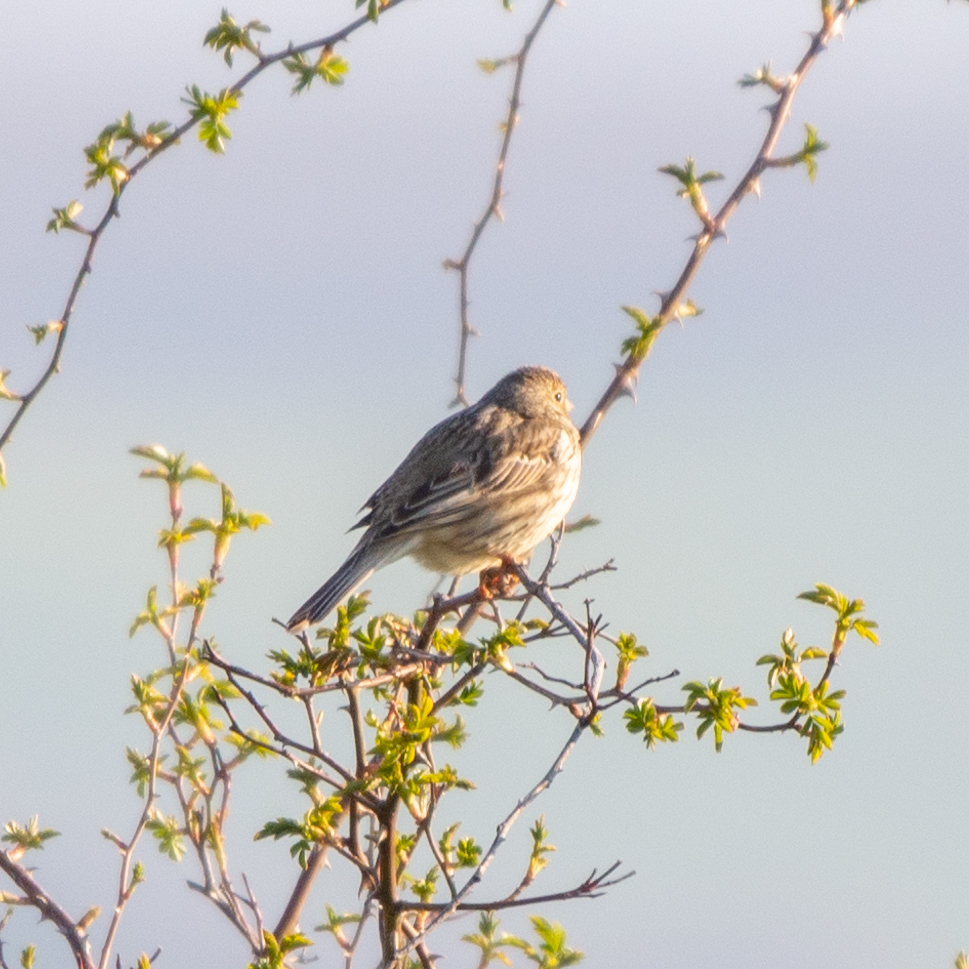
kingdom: Animalia
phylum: Chordata
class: Aves
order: Passeriformes
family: Emberizidae
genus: Emberiza
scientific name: Emberiza calandra
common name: Corn bunting
